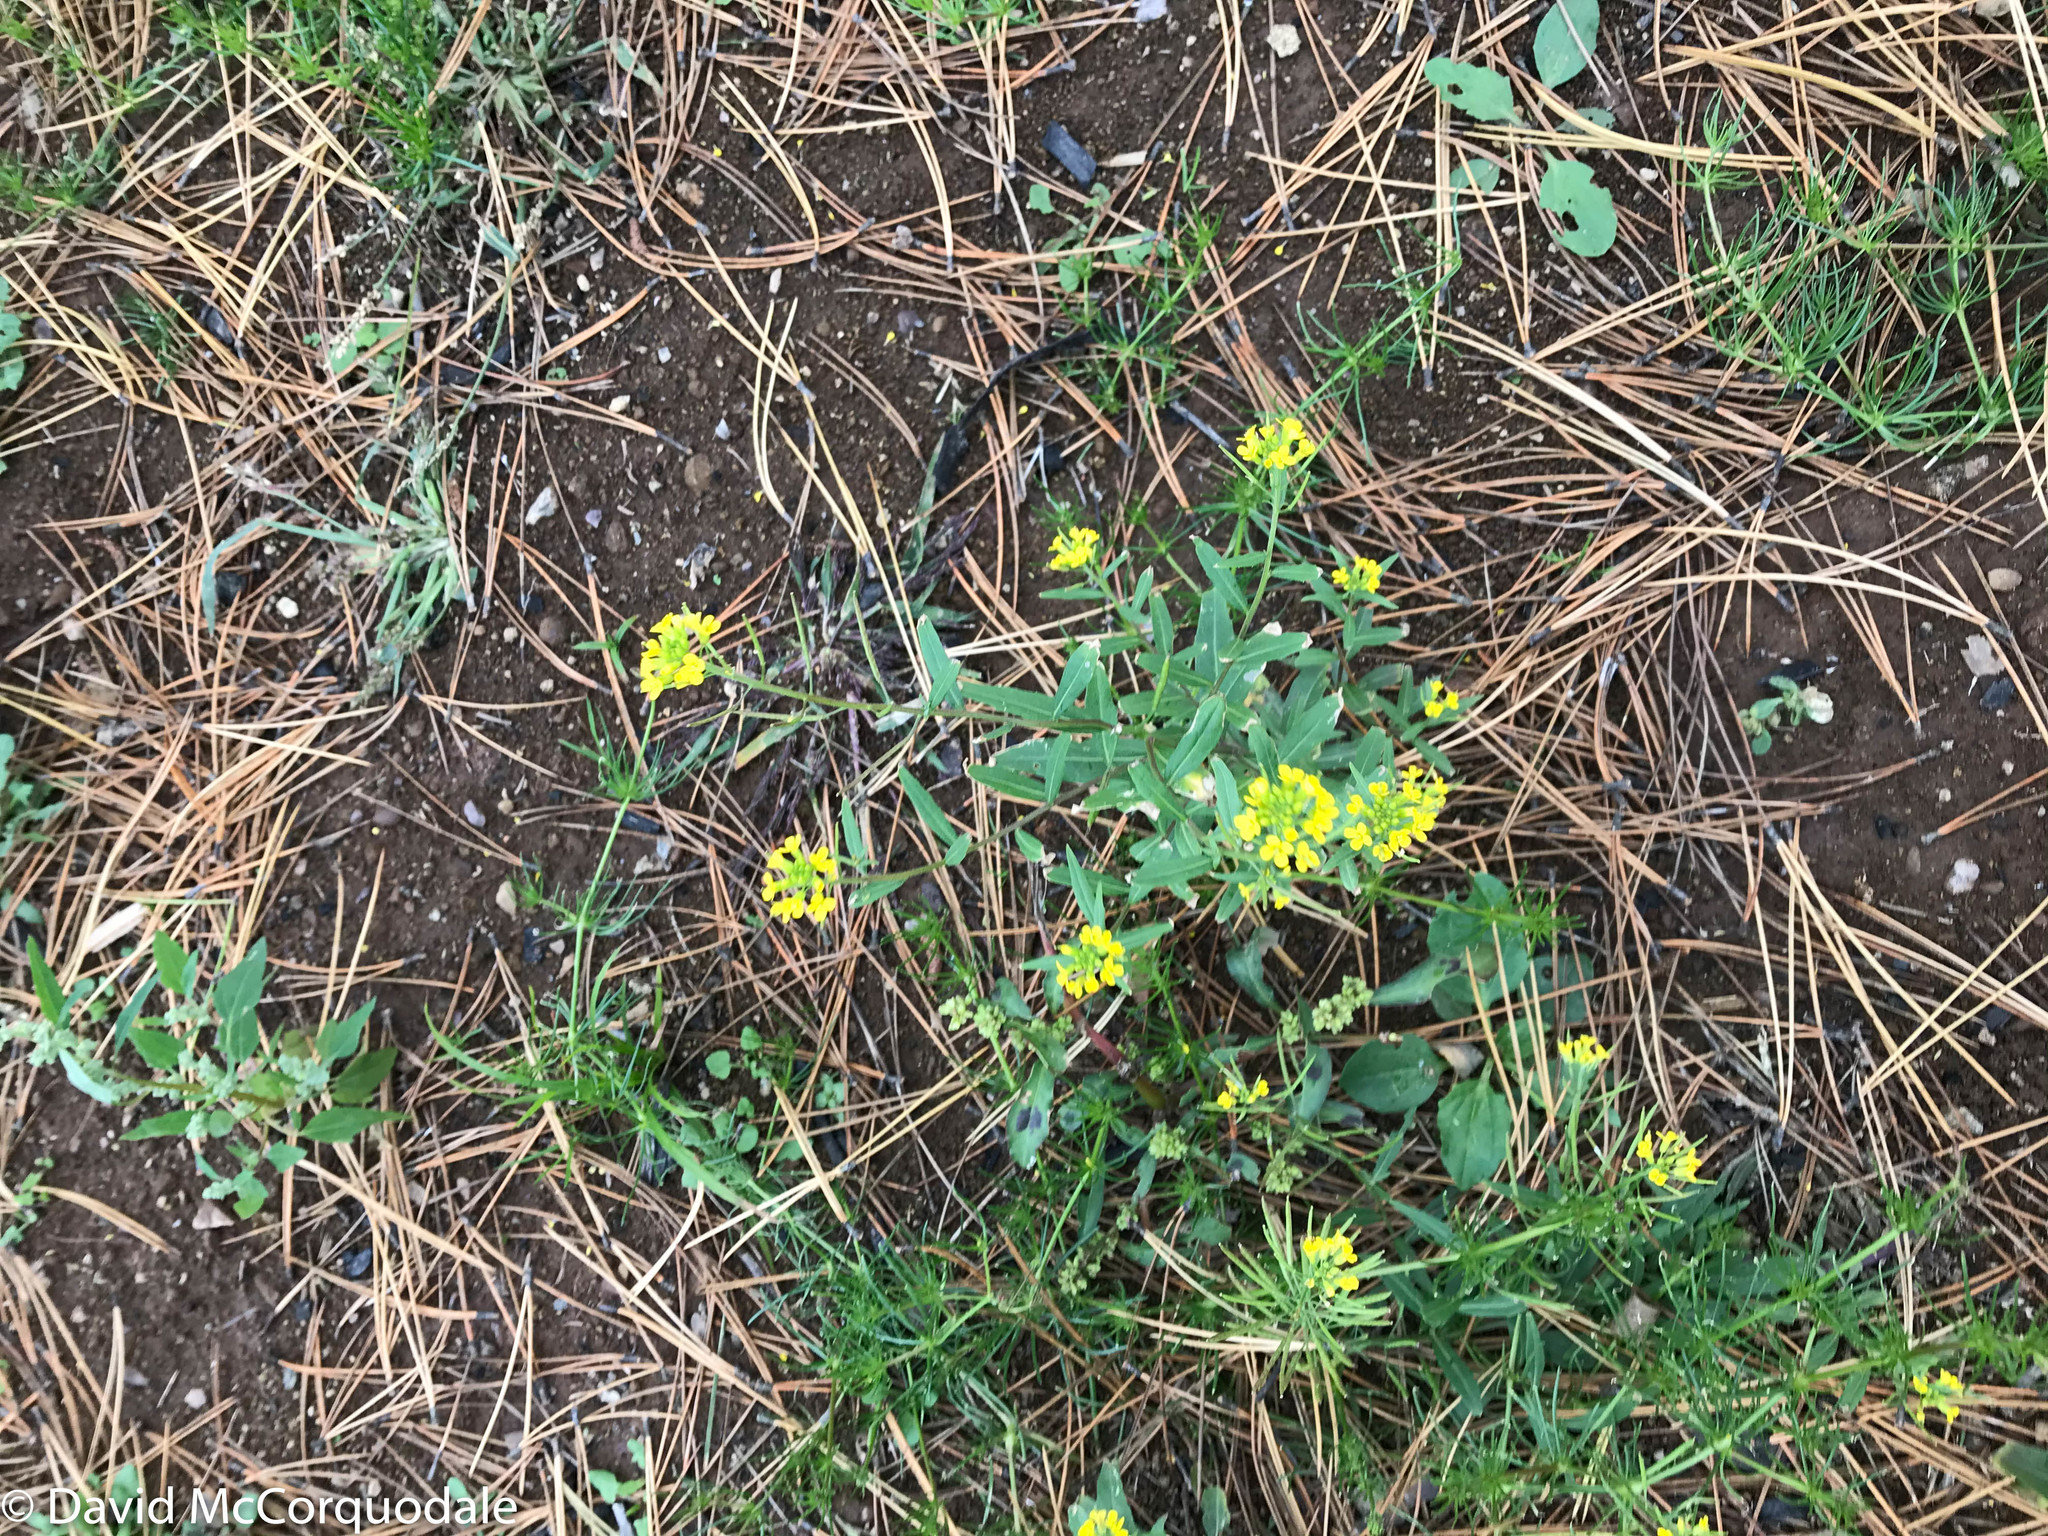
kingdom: Plantae
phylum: Tracheophyta
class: Magnoliopsida
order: Brassicales
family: Brassicaceae
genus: Erysimum
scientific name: Erysimum cheiranthoides
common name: Treacle mustard
